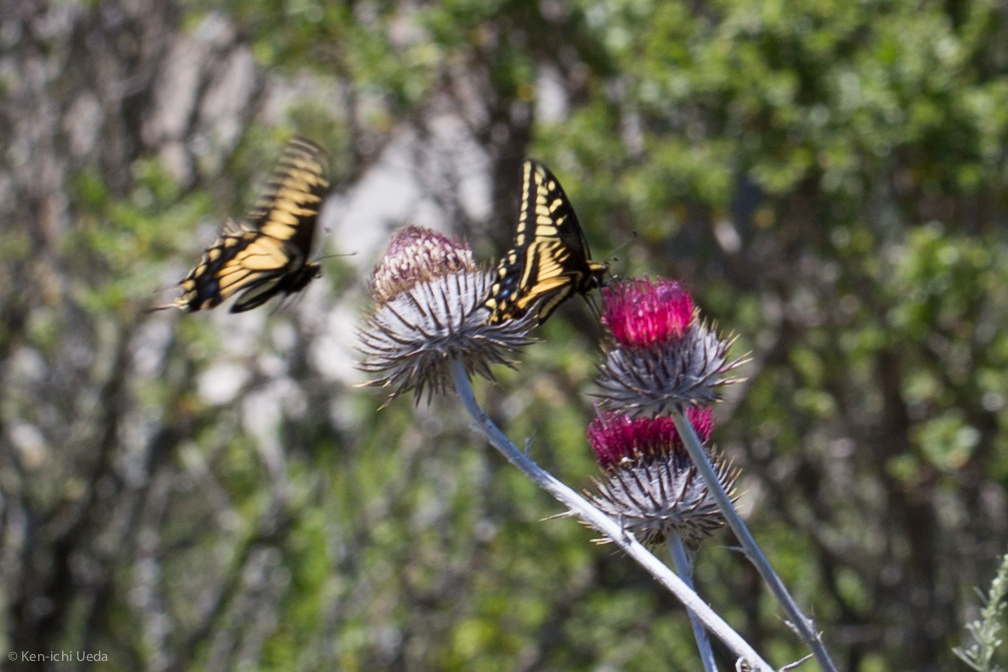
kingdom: Animalia
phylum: Arthropoda
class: Insecta
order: Lepidoptera
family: Papilionidae
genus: Papilio
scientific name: Papilio zelicaon
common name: Anise swallowtail
